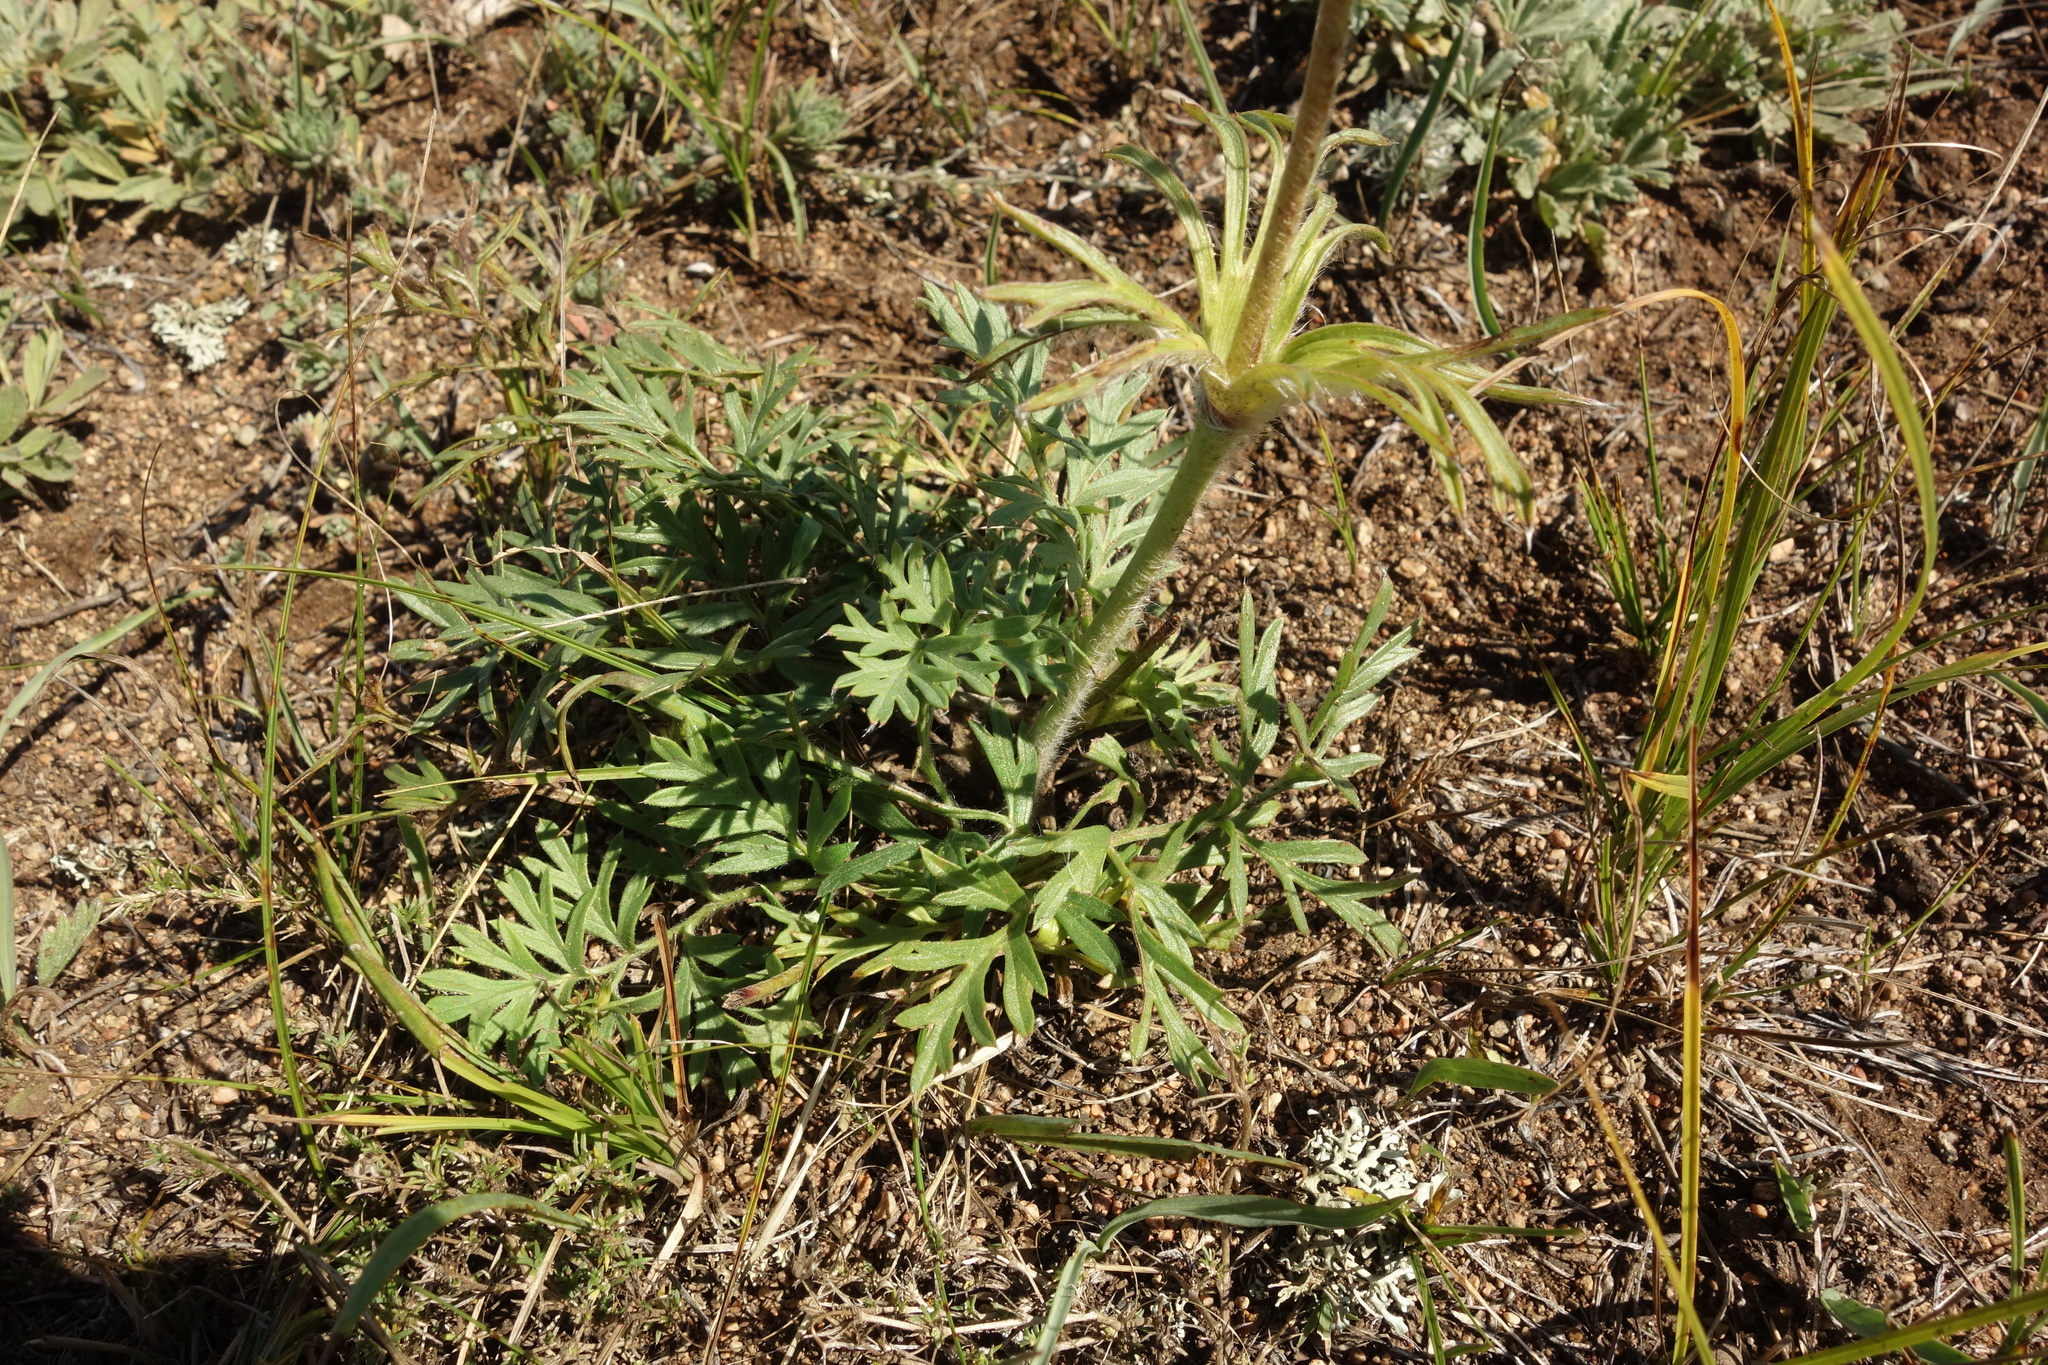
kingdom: Plantae
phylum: Tracheophyta
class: Magnoliopsida
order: Ranunculales
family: Ranunculaceae
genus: Pulsatilla
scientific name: Pulsatilla turczaninovii
